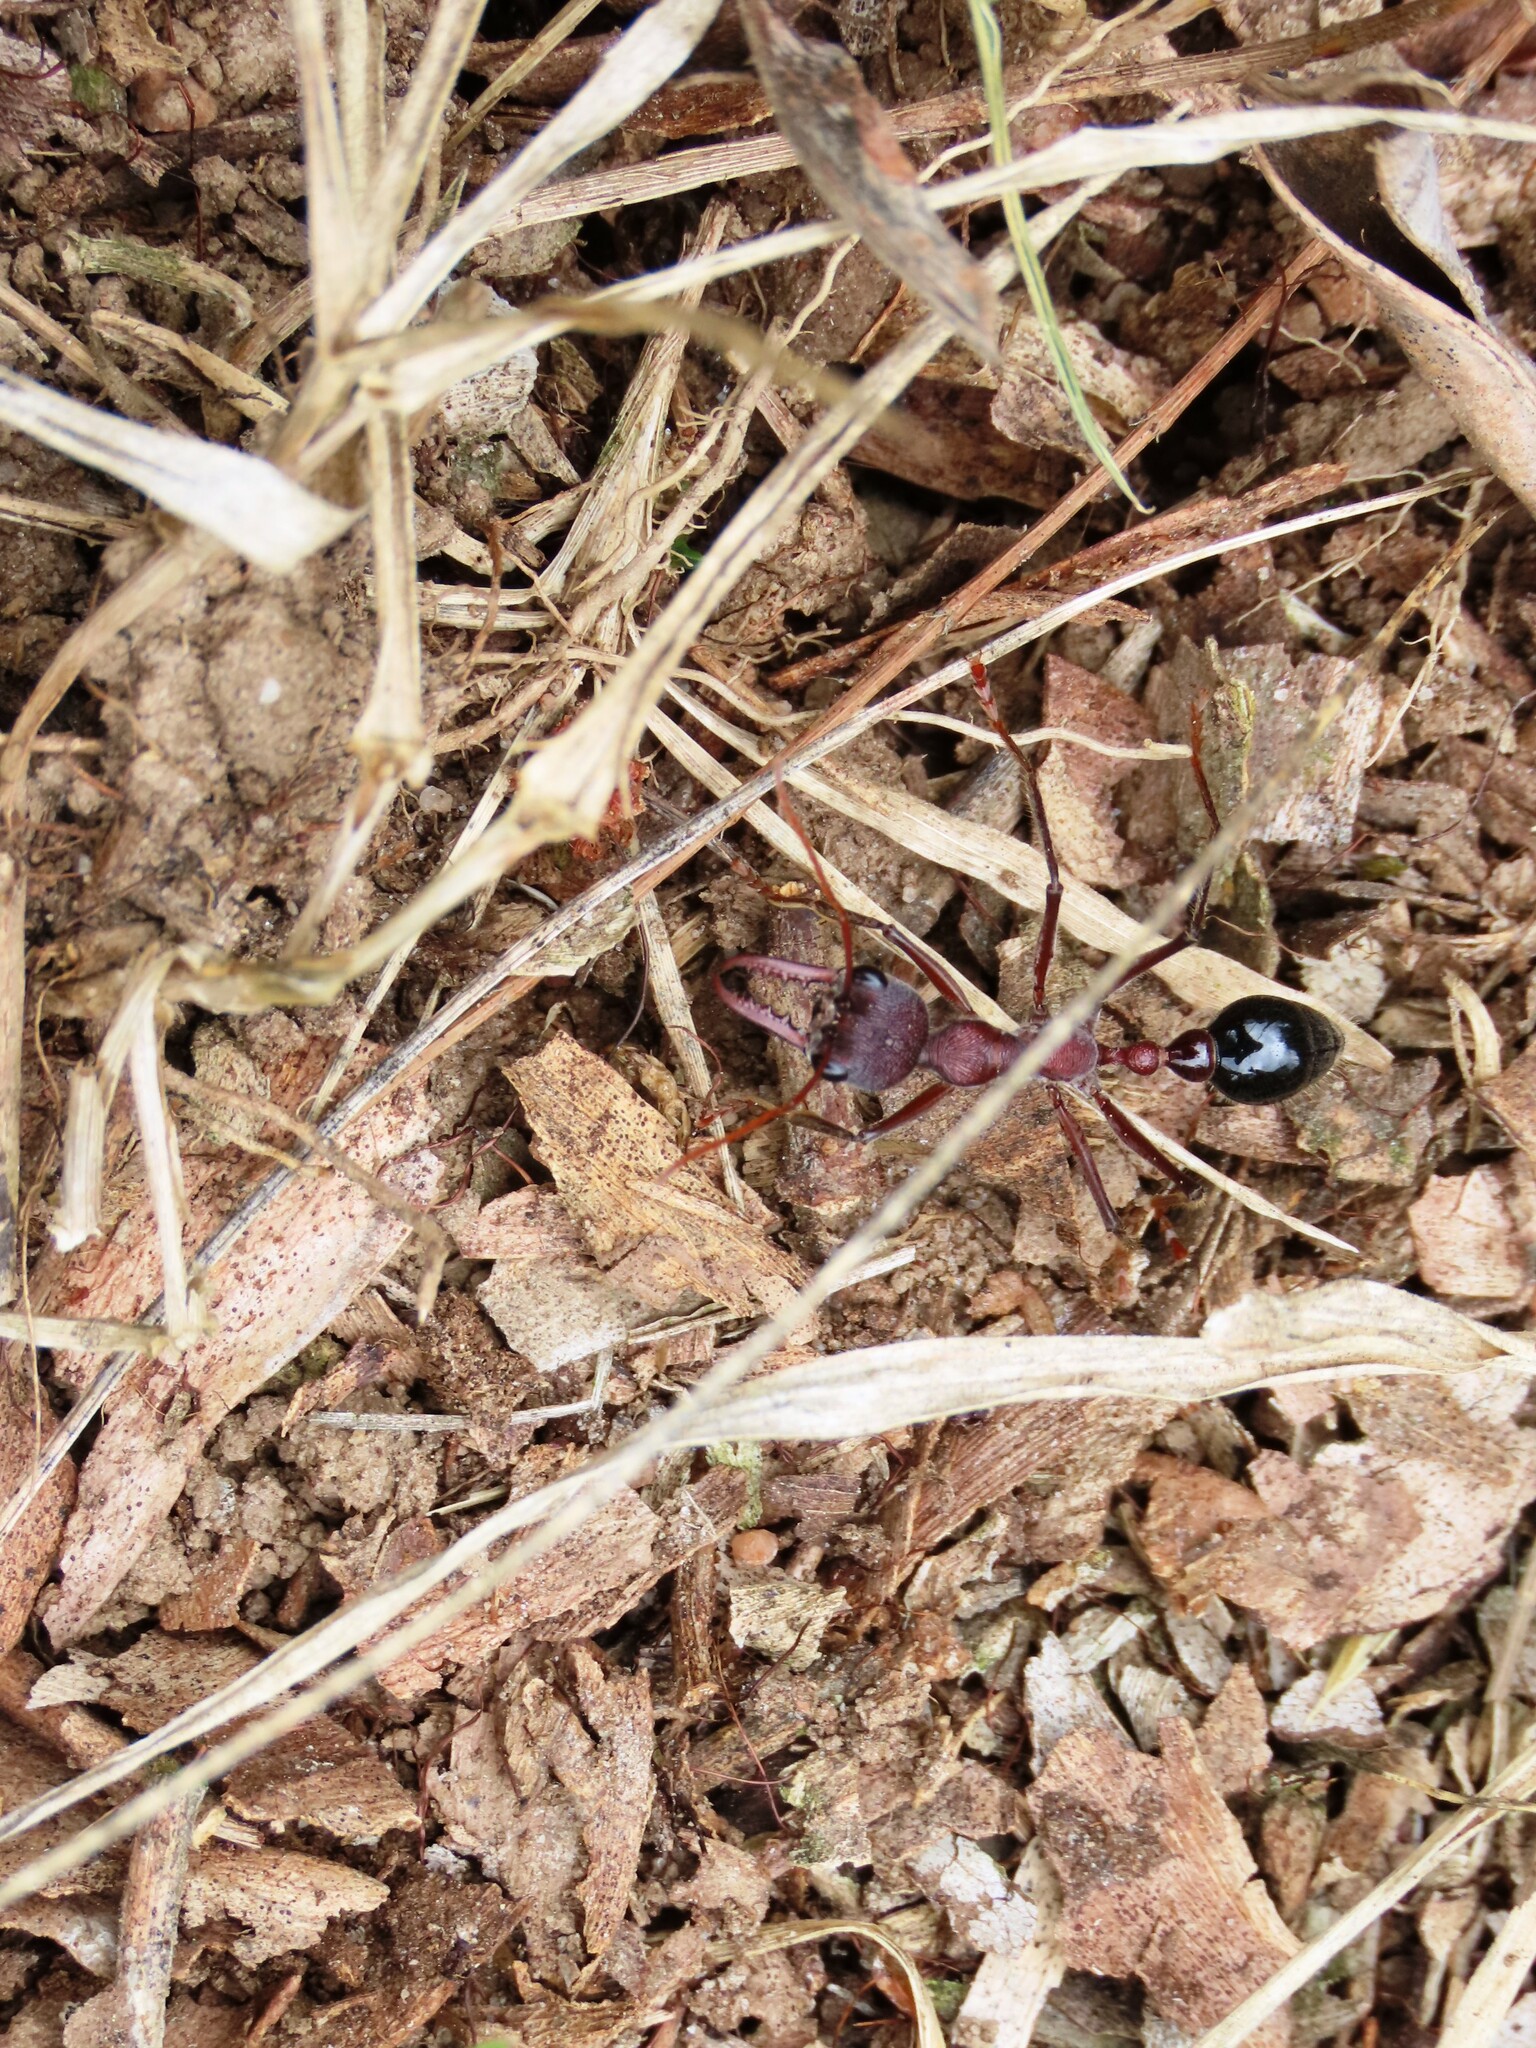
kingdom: Animalia
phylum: Arthropoda
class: Insecta
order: Hymenoptera
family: Formicidae
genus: Myrmecia
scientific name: Myrmecia simillima
